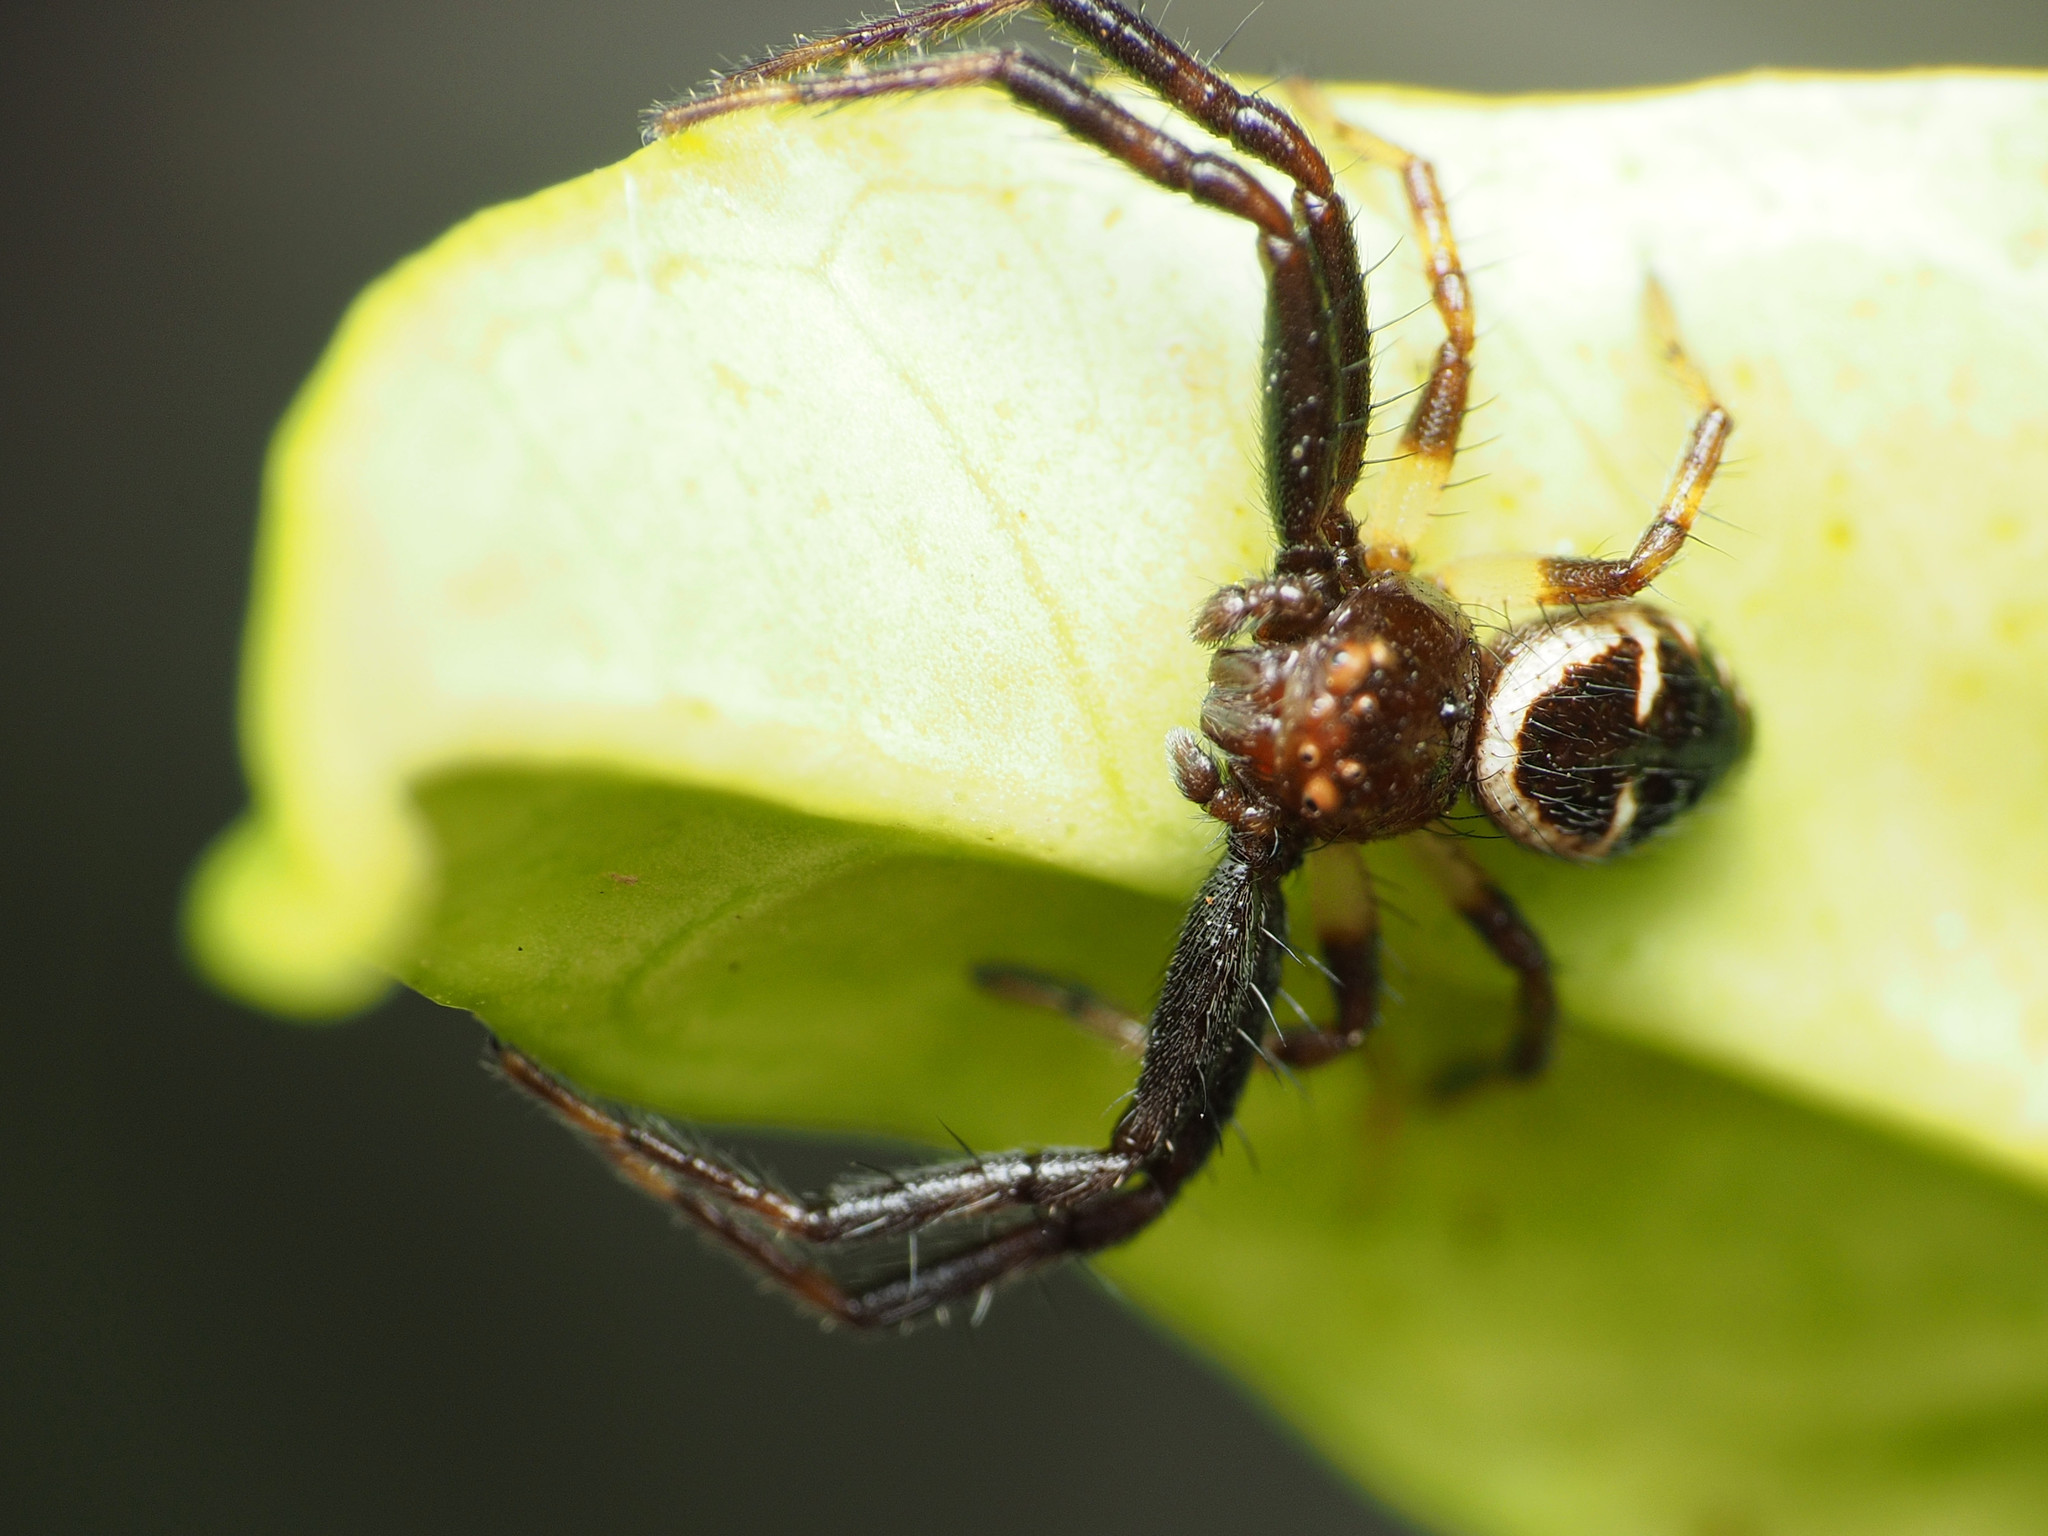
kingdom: Animalia
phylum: Arthropoda
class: Arachnida
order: Araneae
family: Thomisidae
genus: Synema
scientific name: Synema globosum
